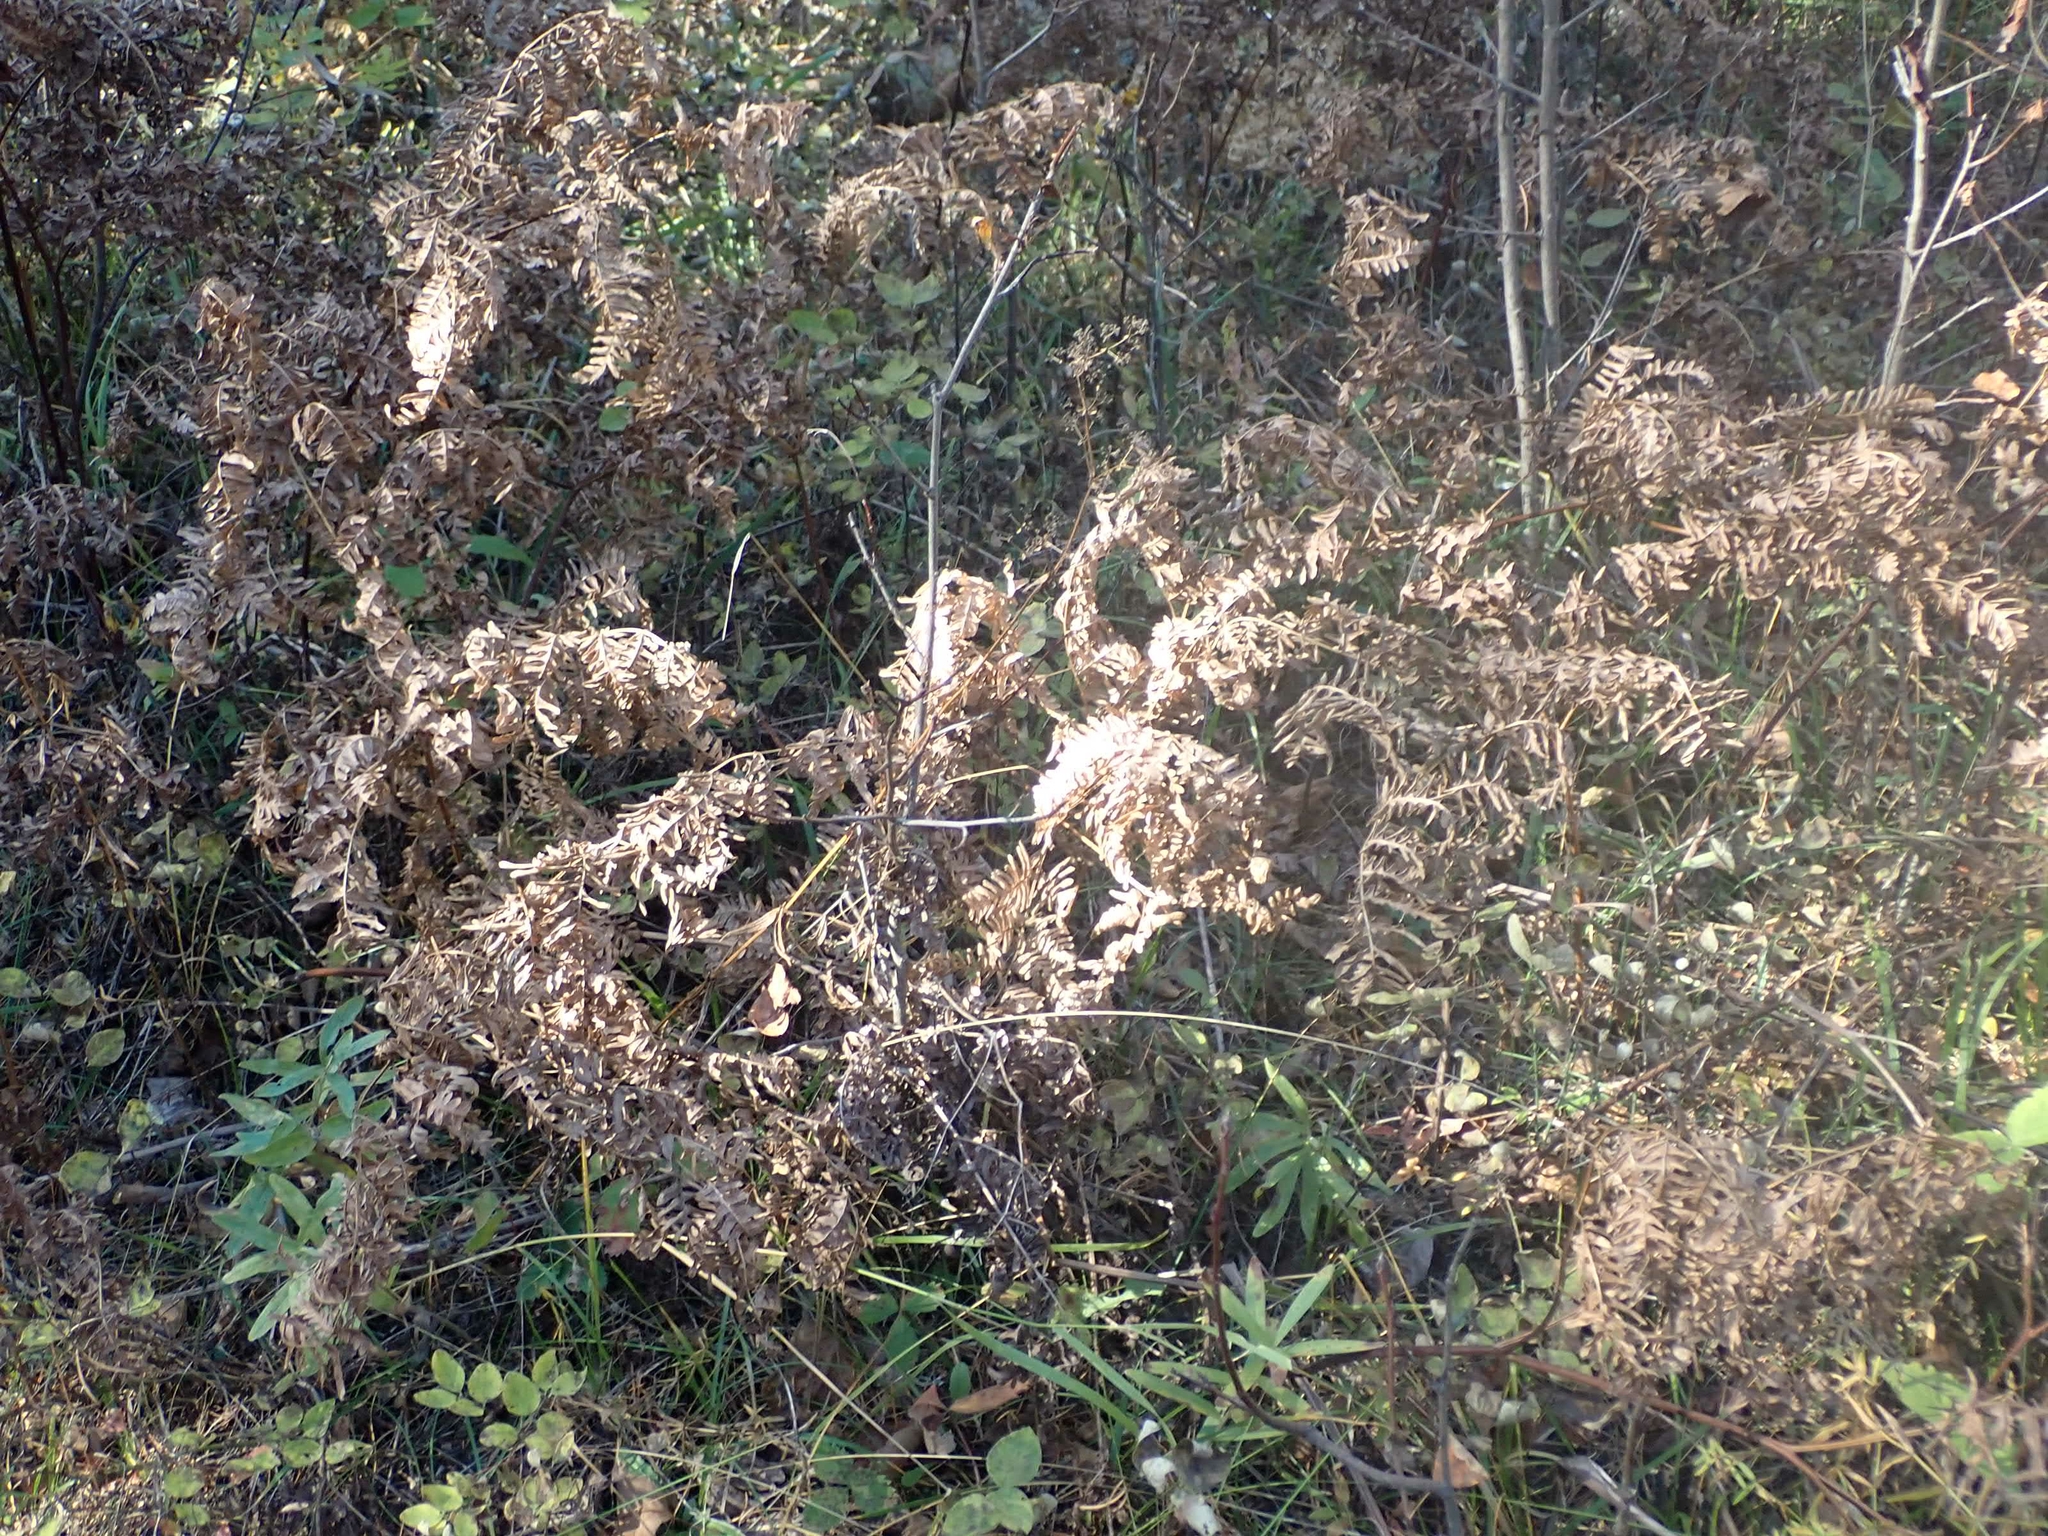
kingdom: Plantae
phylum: Tracheophyta
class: Polypodiopsida
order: Polypodiales
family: Dennstaedtiaceae
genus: Pteridium
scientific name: Pteridium aquilinum
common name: Bracken
